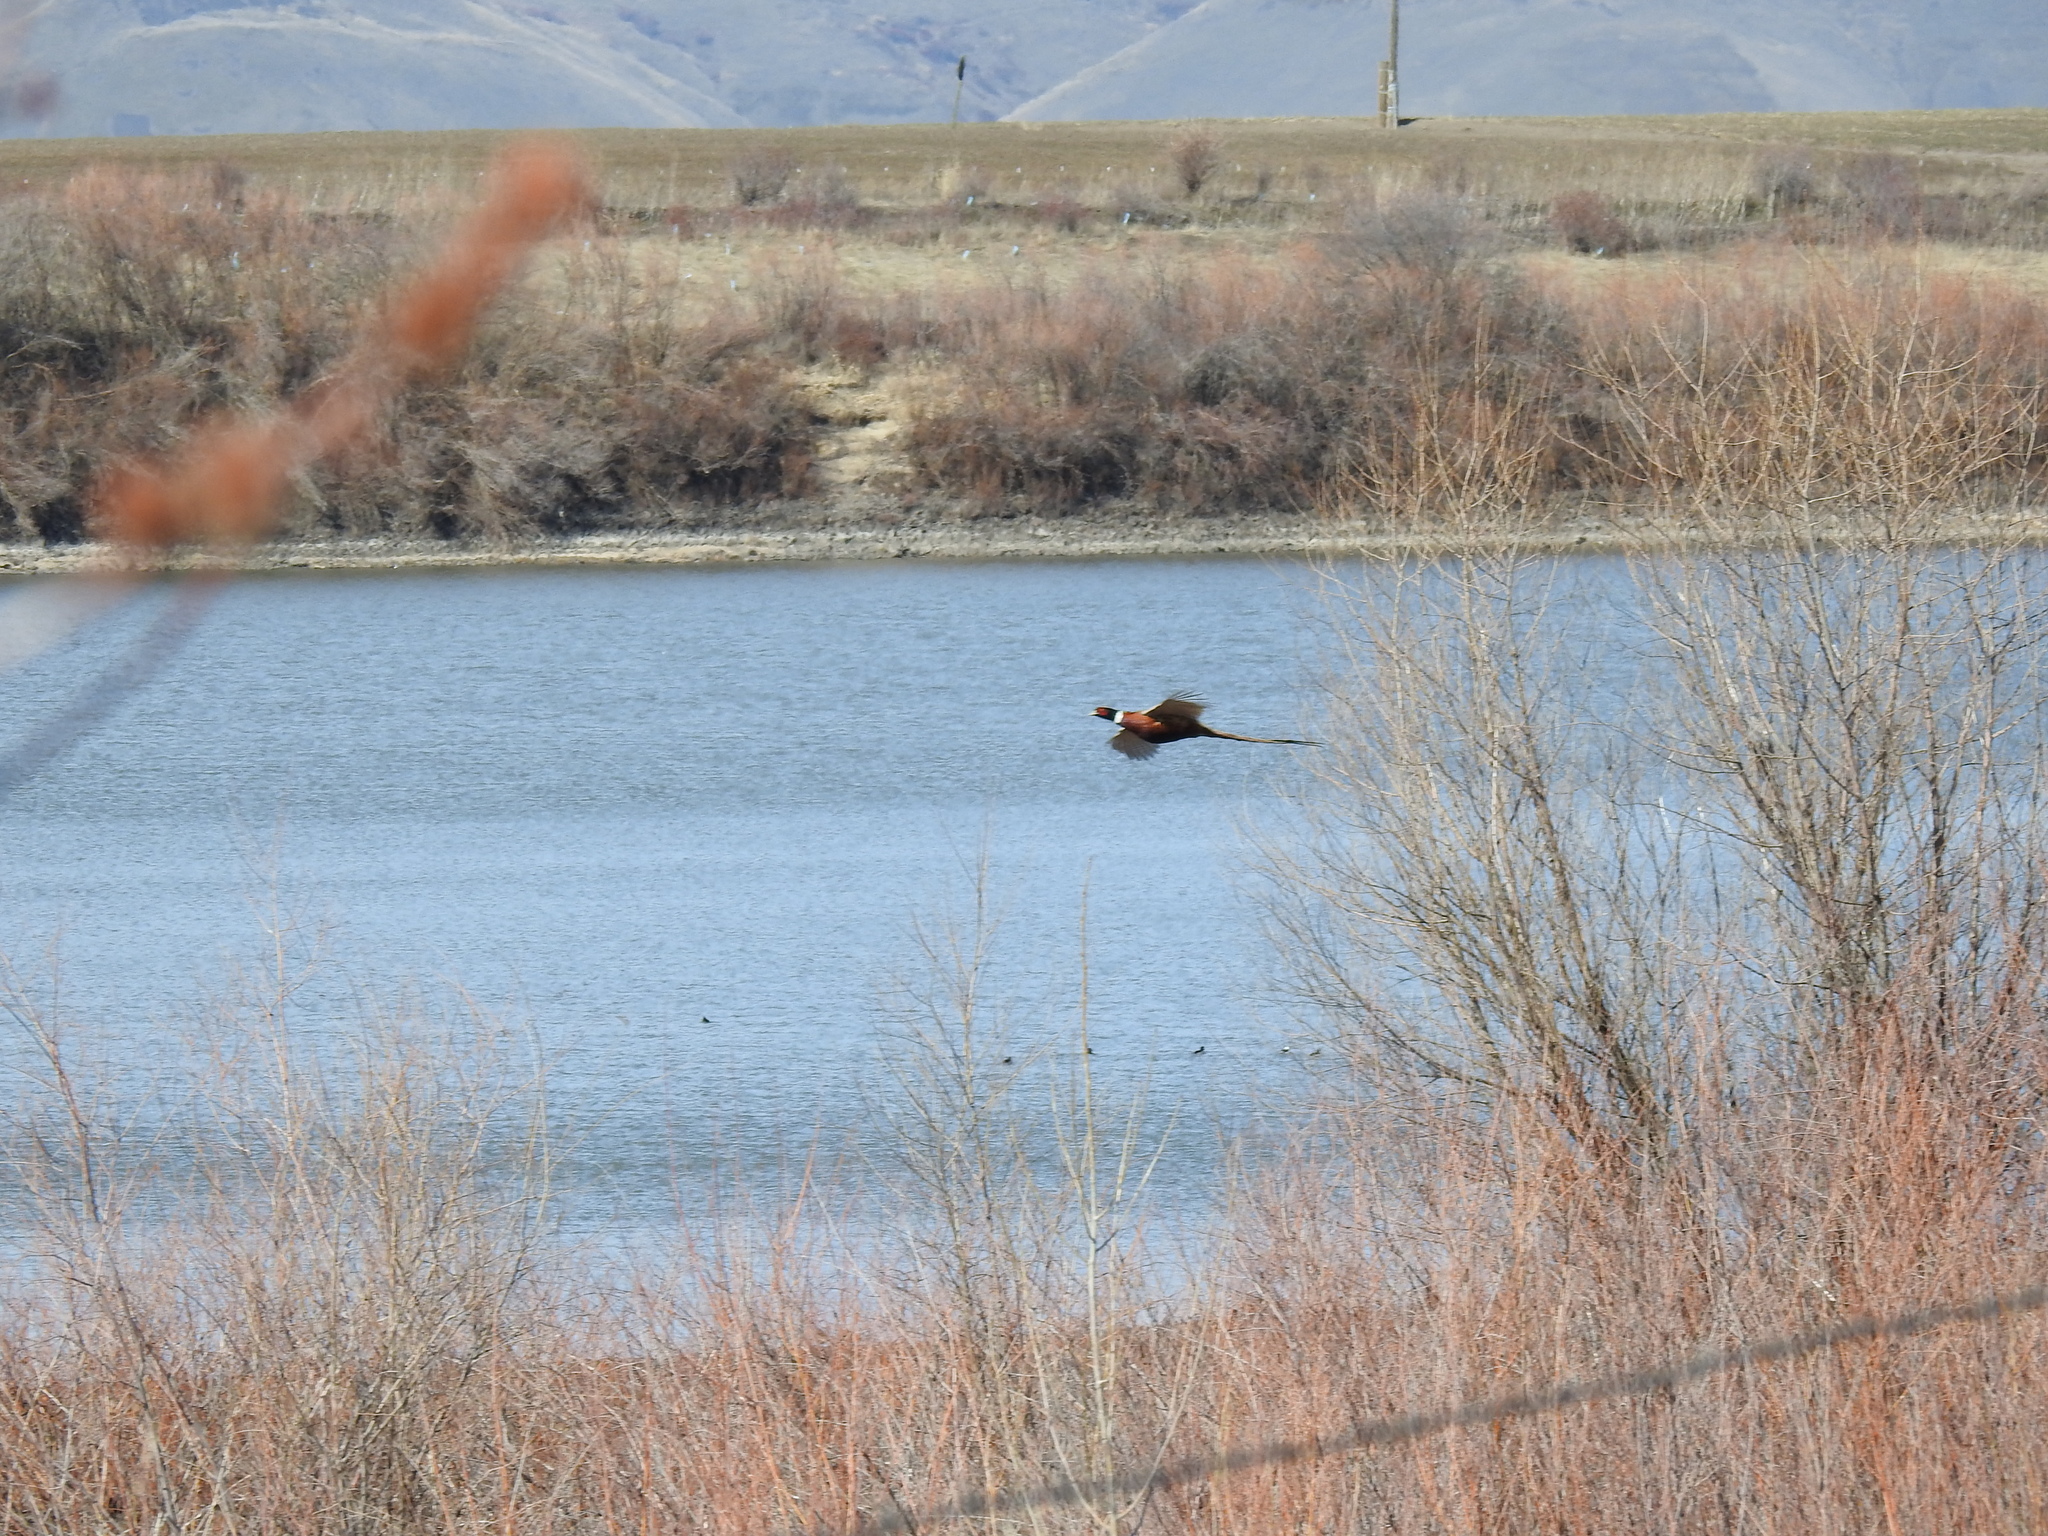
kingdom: Animalia
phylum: Chordata
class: Aves
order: Galliformes
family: Phasianidae
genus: Phasianus
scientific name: Phasianus colchicus
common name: Common pheasant
